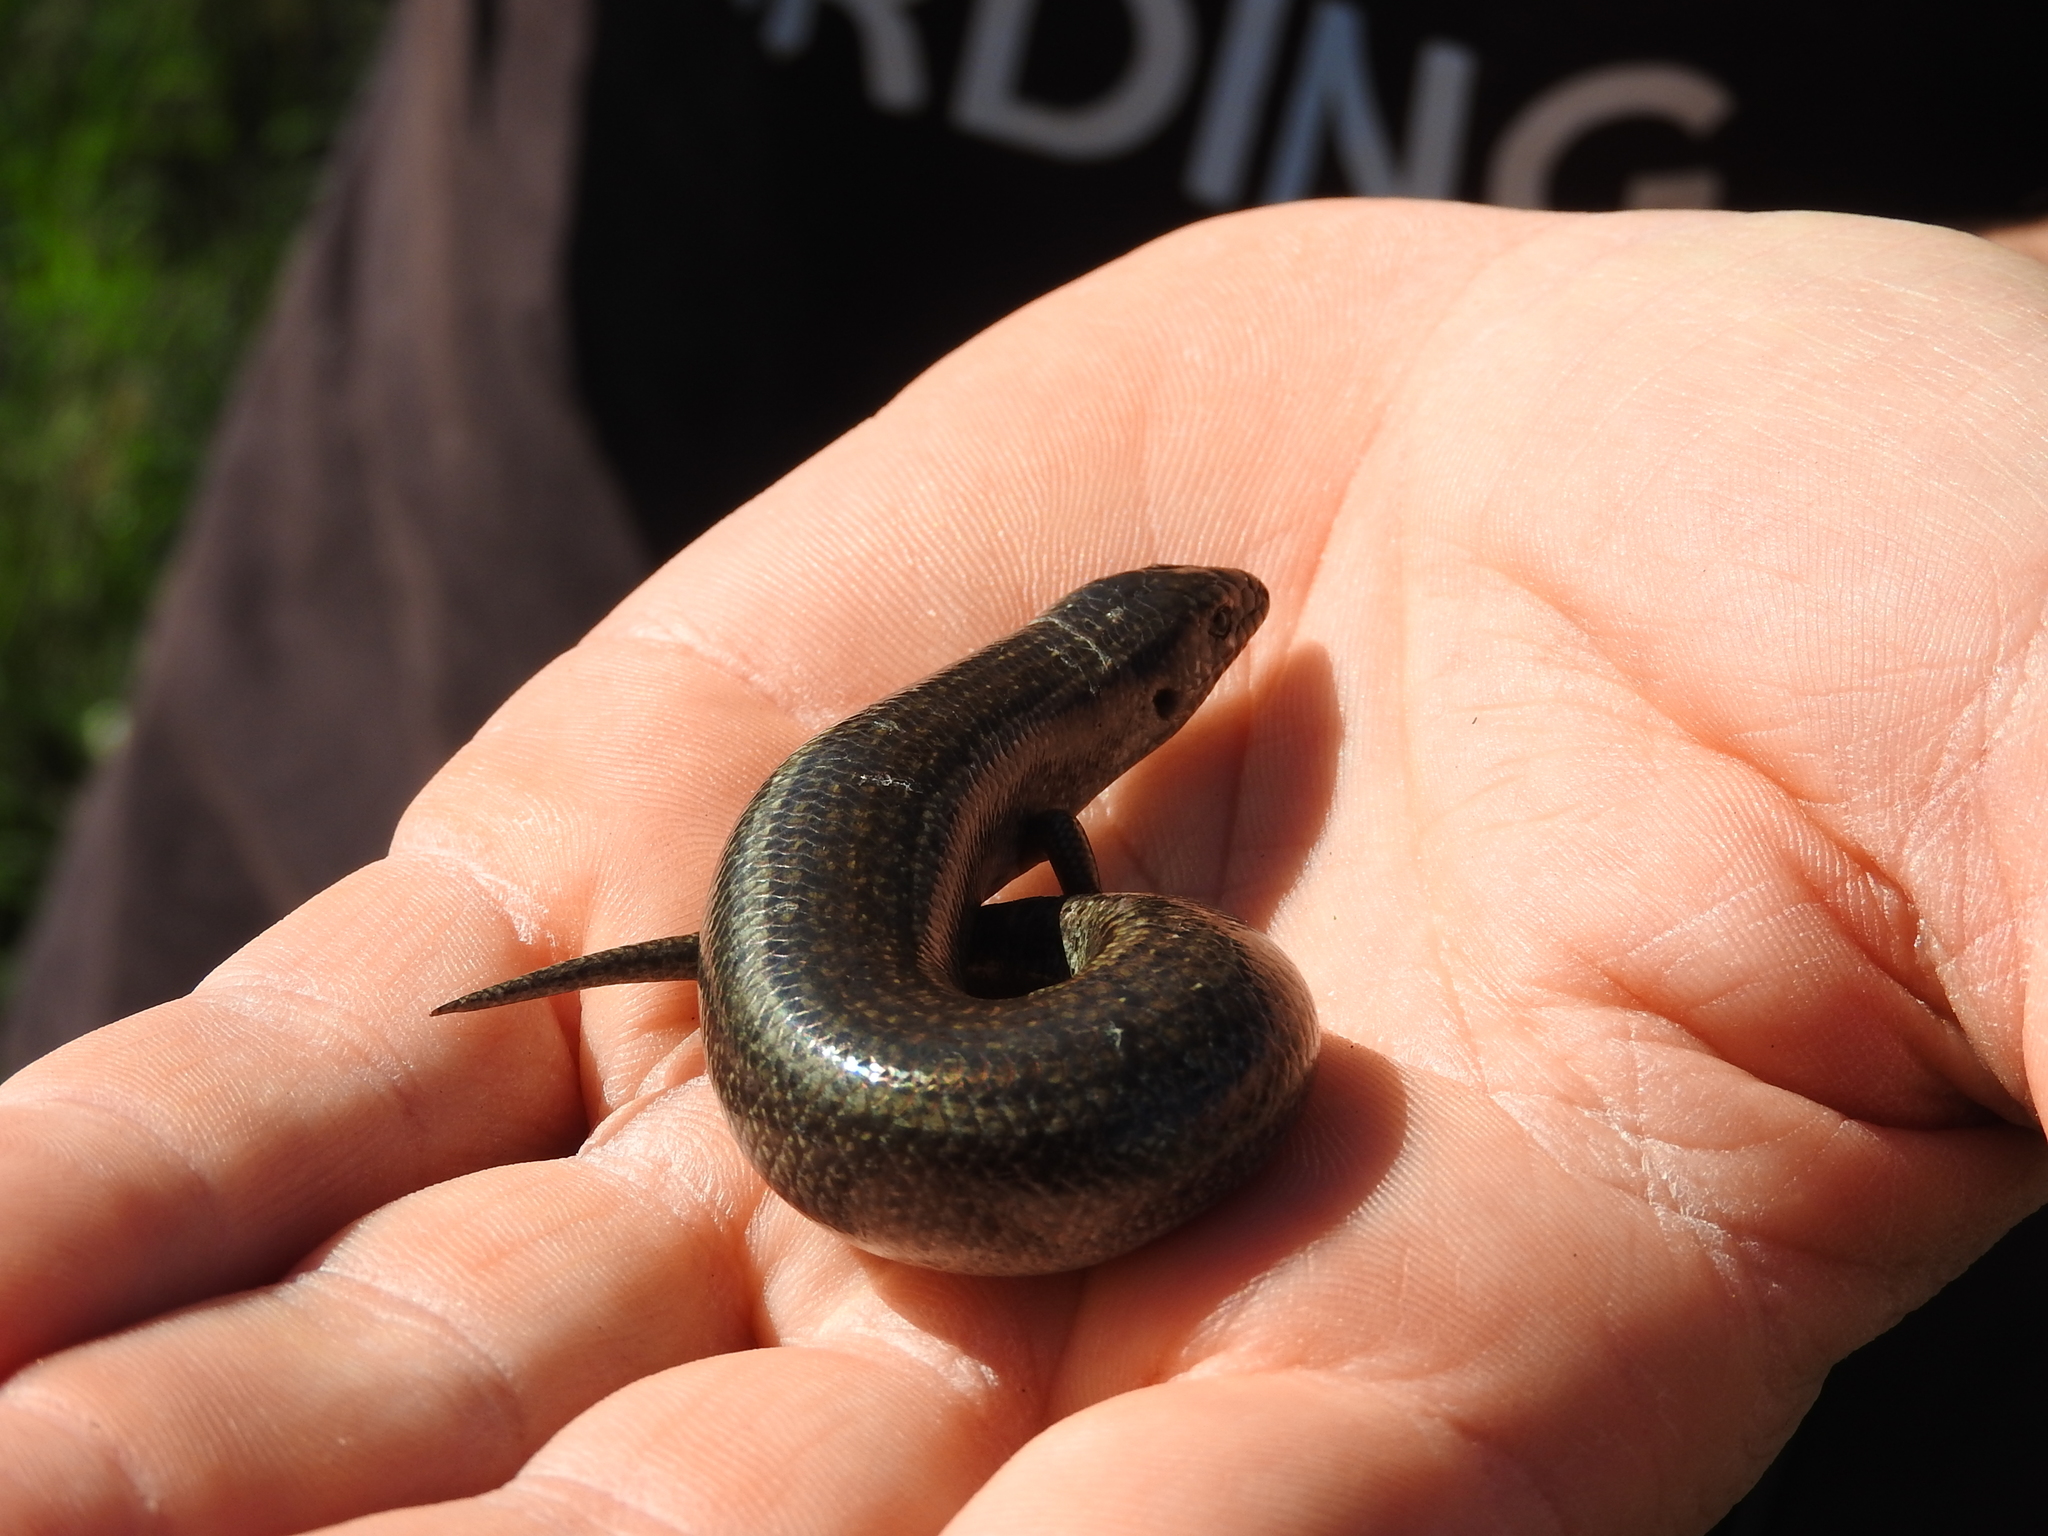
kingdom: Animalia
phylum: Chordata
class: Squamata
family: Scincidae
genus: Chalcides
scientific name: Chalcides ocellatus
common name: Ocellated skink
